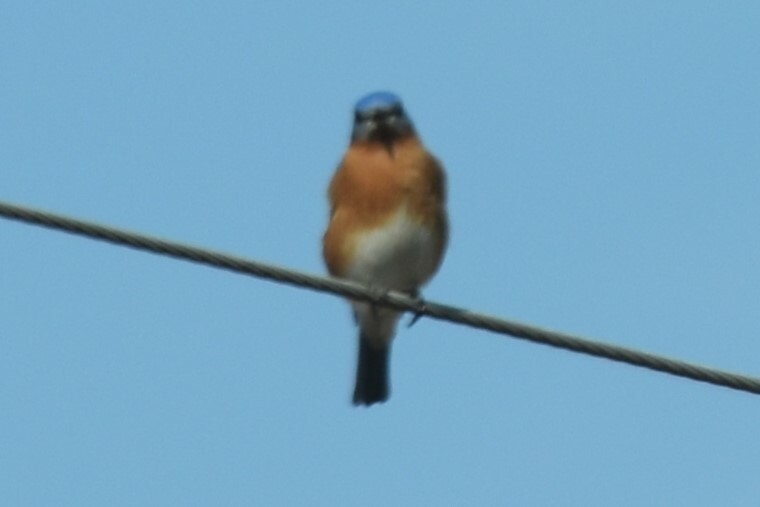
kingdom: Animalia
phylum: Chordata
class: Aves
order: Passeriformes
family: Turdidae
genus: Sialia
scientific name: Sialia sialis
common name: Eastern bluebird
